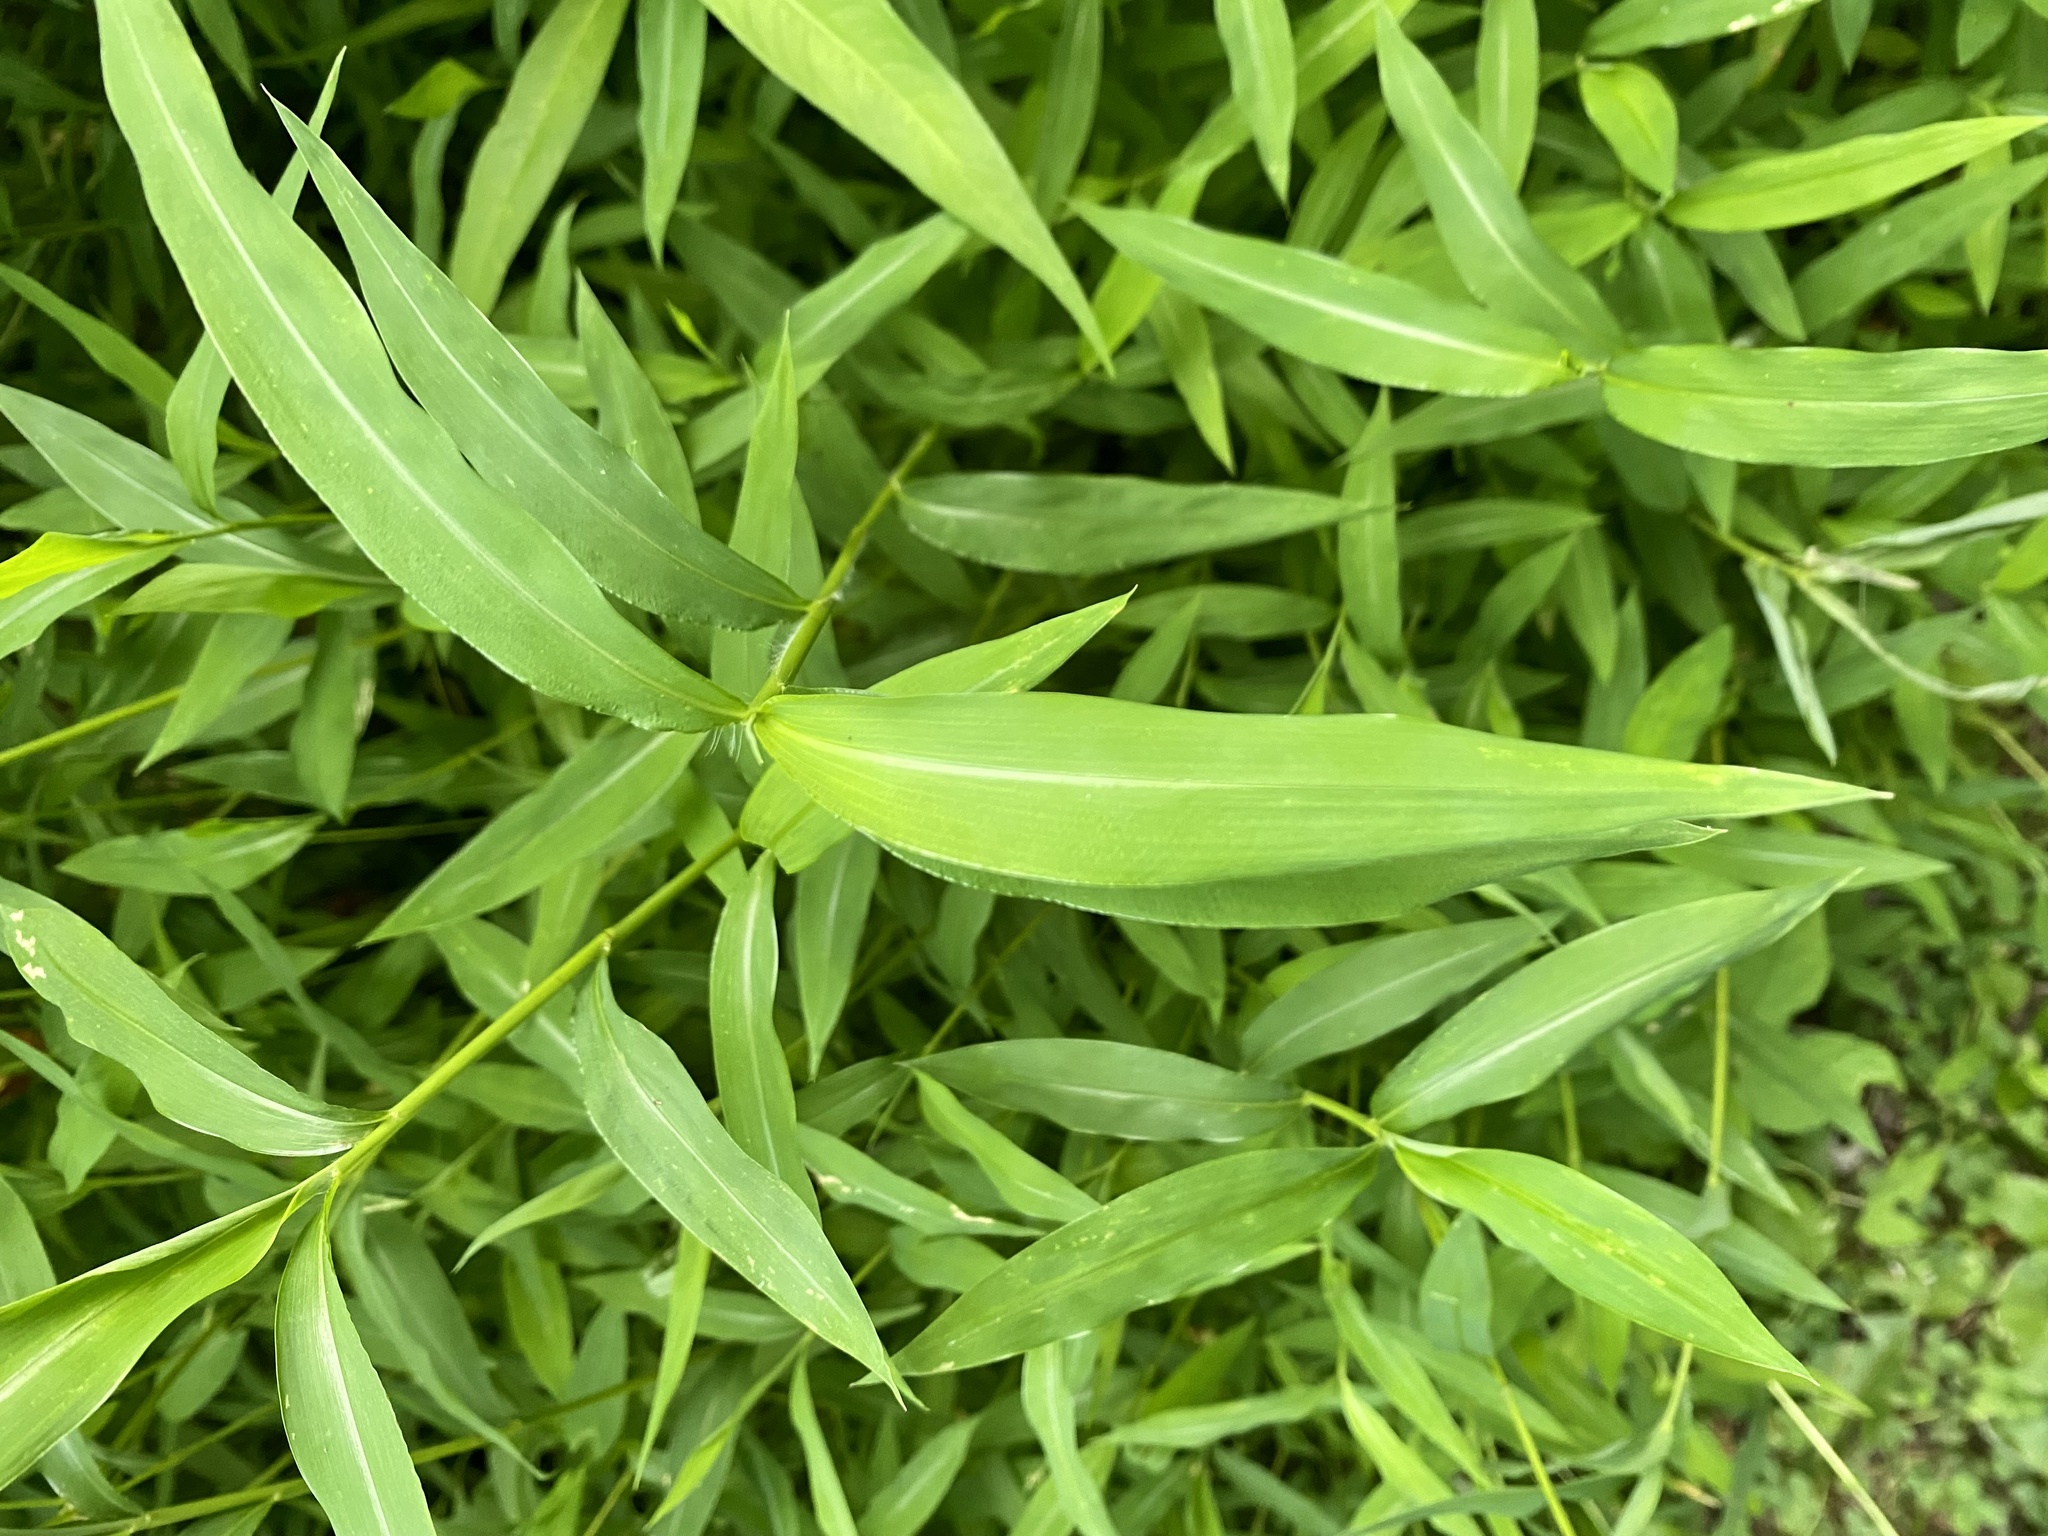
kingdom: Plantae
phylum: Tracheophyta
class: Liliopsida
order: Poales
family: Poaceae
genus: Microstegium
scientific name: Microstegium vimineum
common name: Japanese stiltgrass
